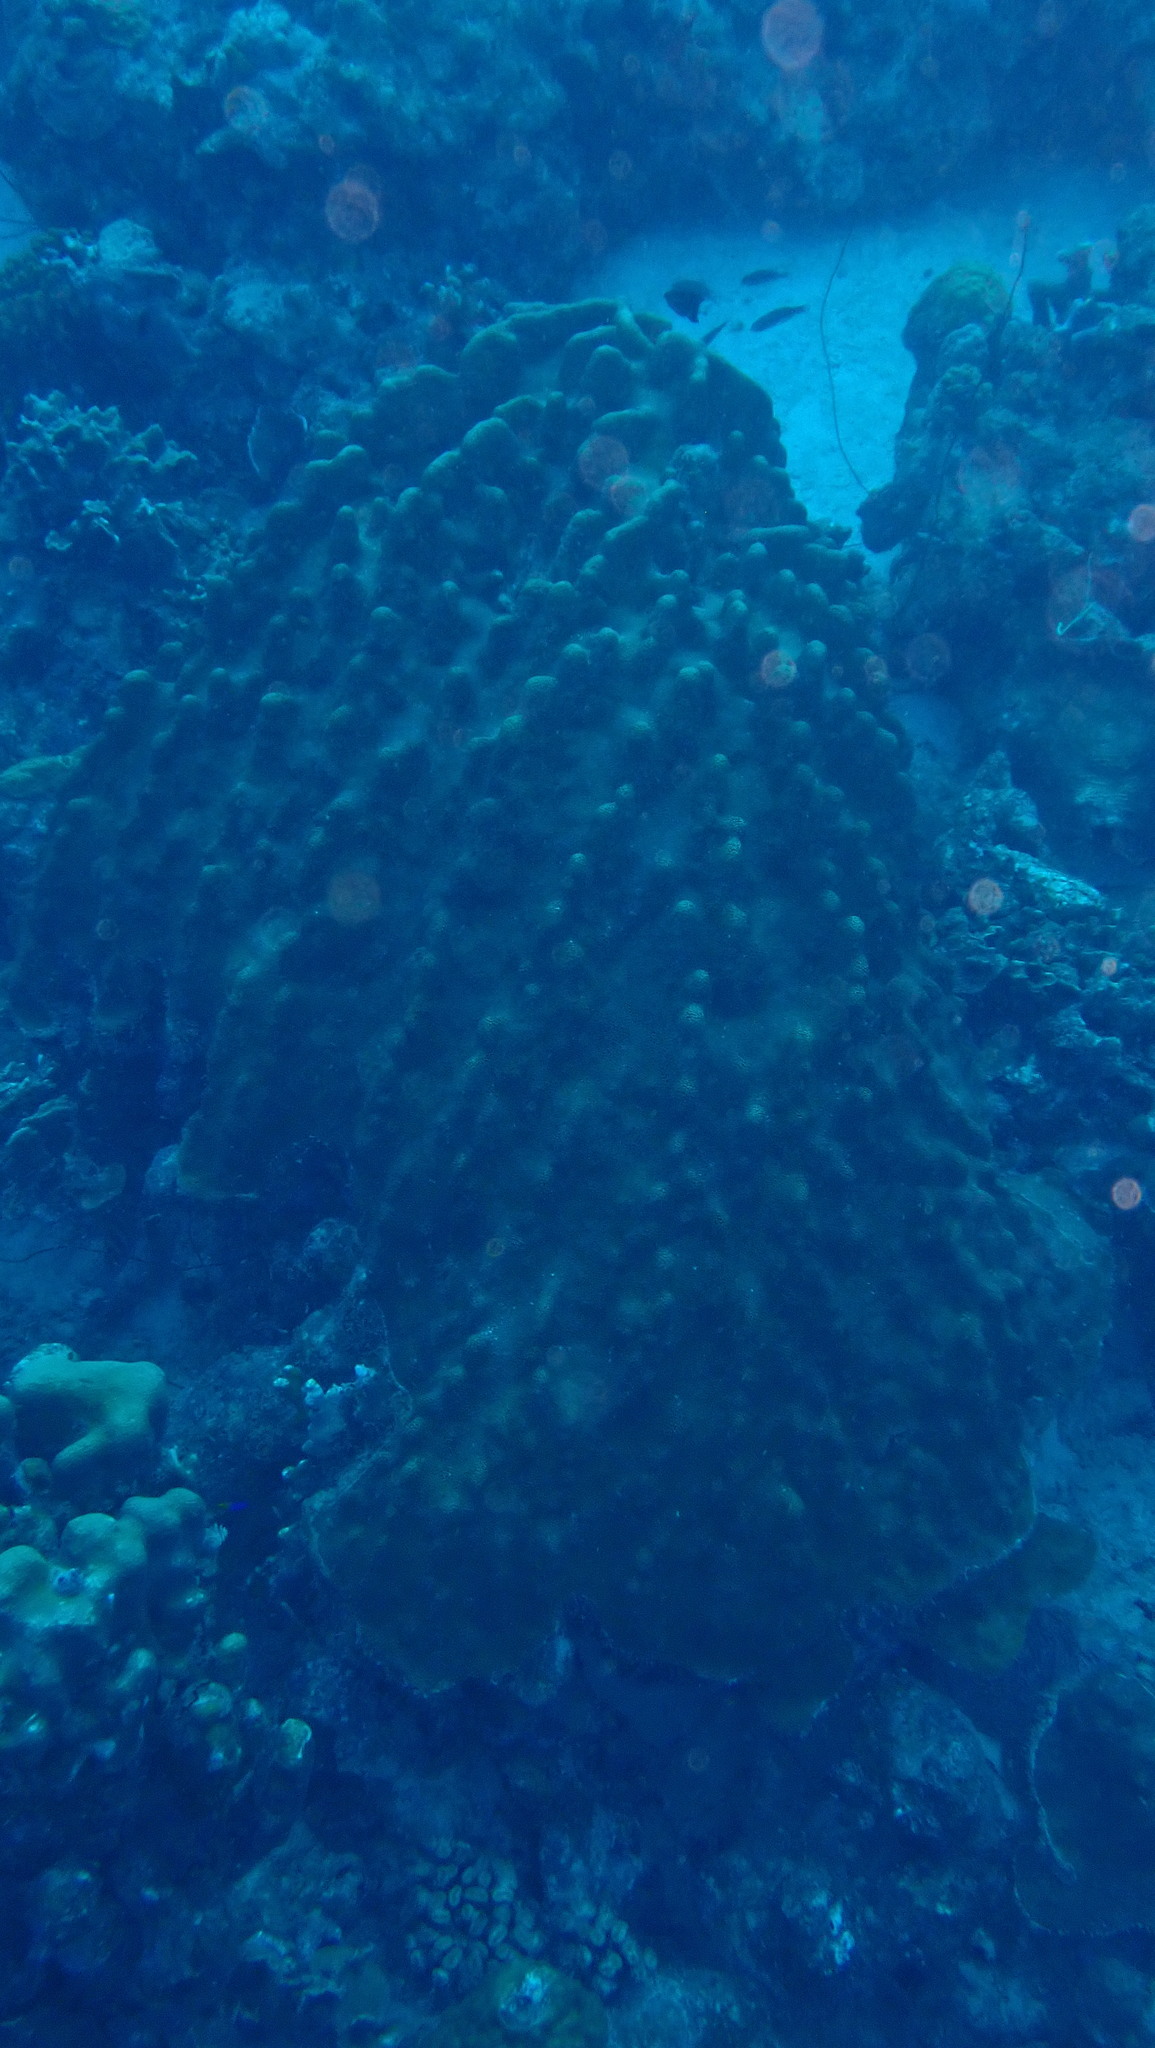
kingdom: Animalia
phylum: Cnidaria
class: Anthozoa
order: Scleractinia
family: Merulinidae
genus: Orbicella
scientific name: Orbicella faveolata
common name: Mountainous star coral
